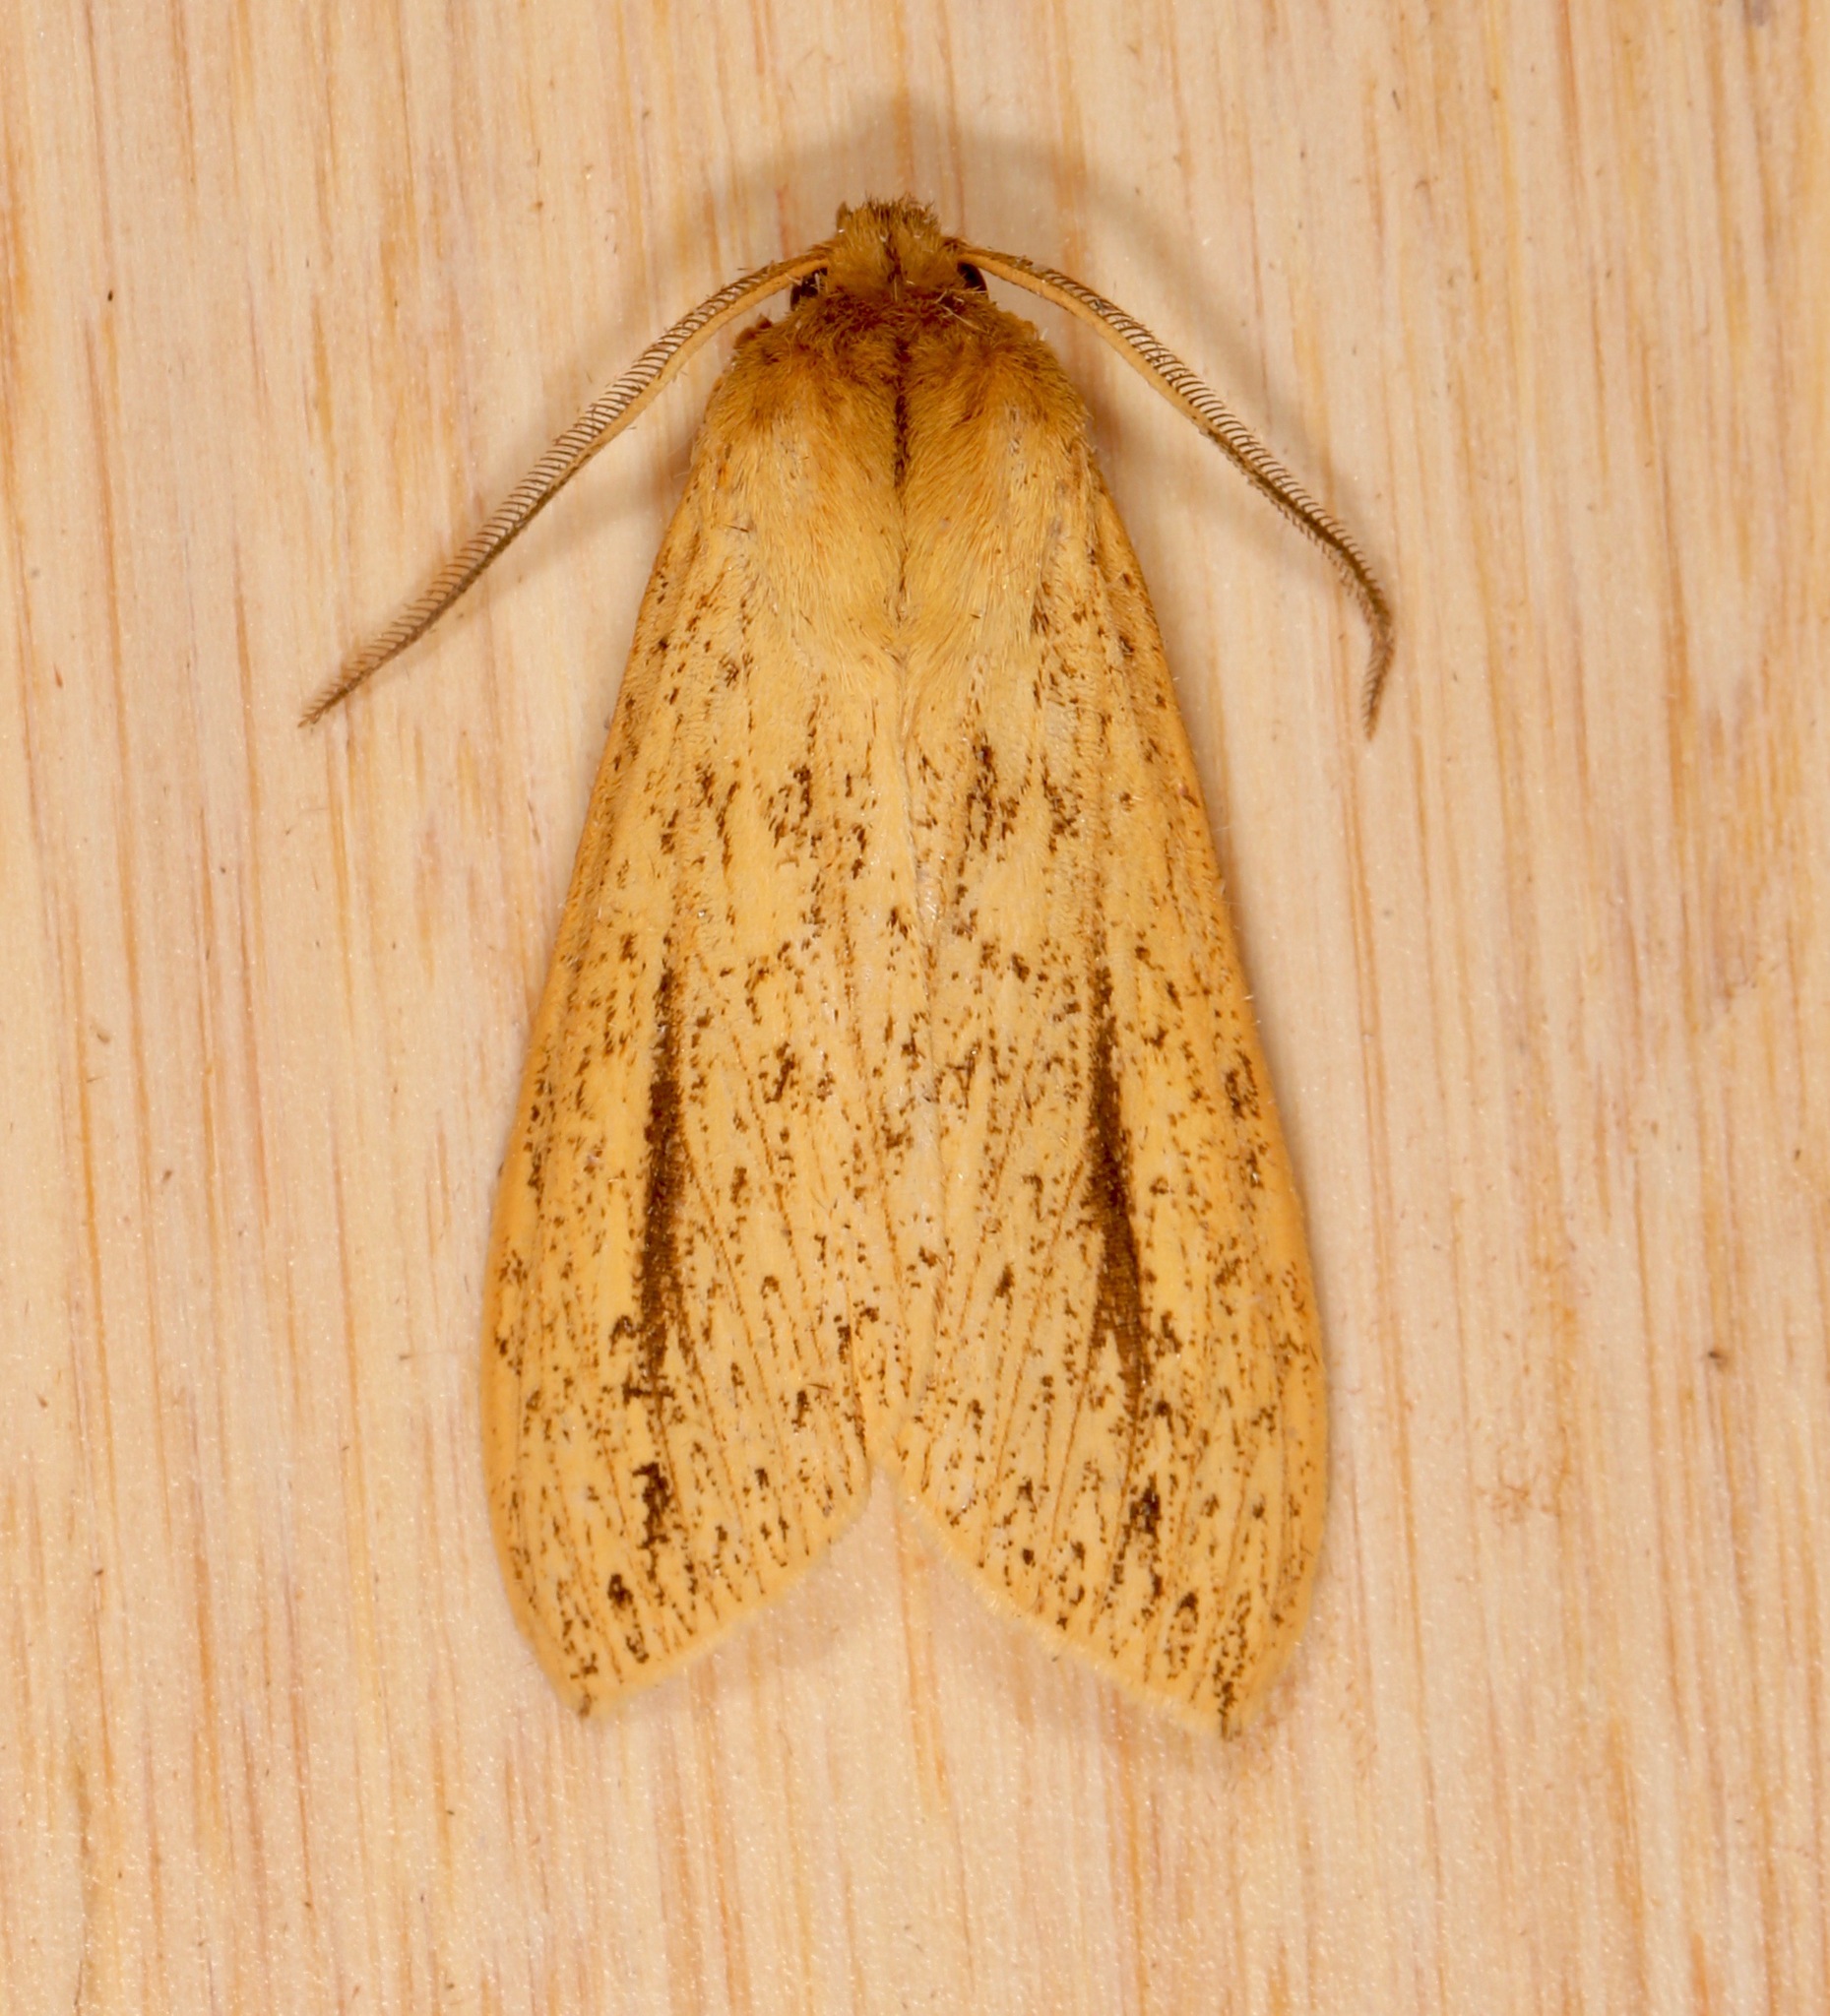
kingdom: Animalia
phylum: Arthropoda
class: Insecta
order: Lepidoptera
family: Erebidae
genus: Leucanopsis
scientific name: Leucanopsis longa
